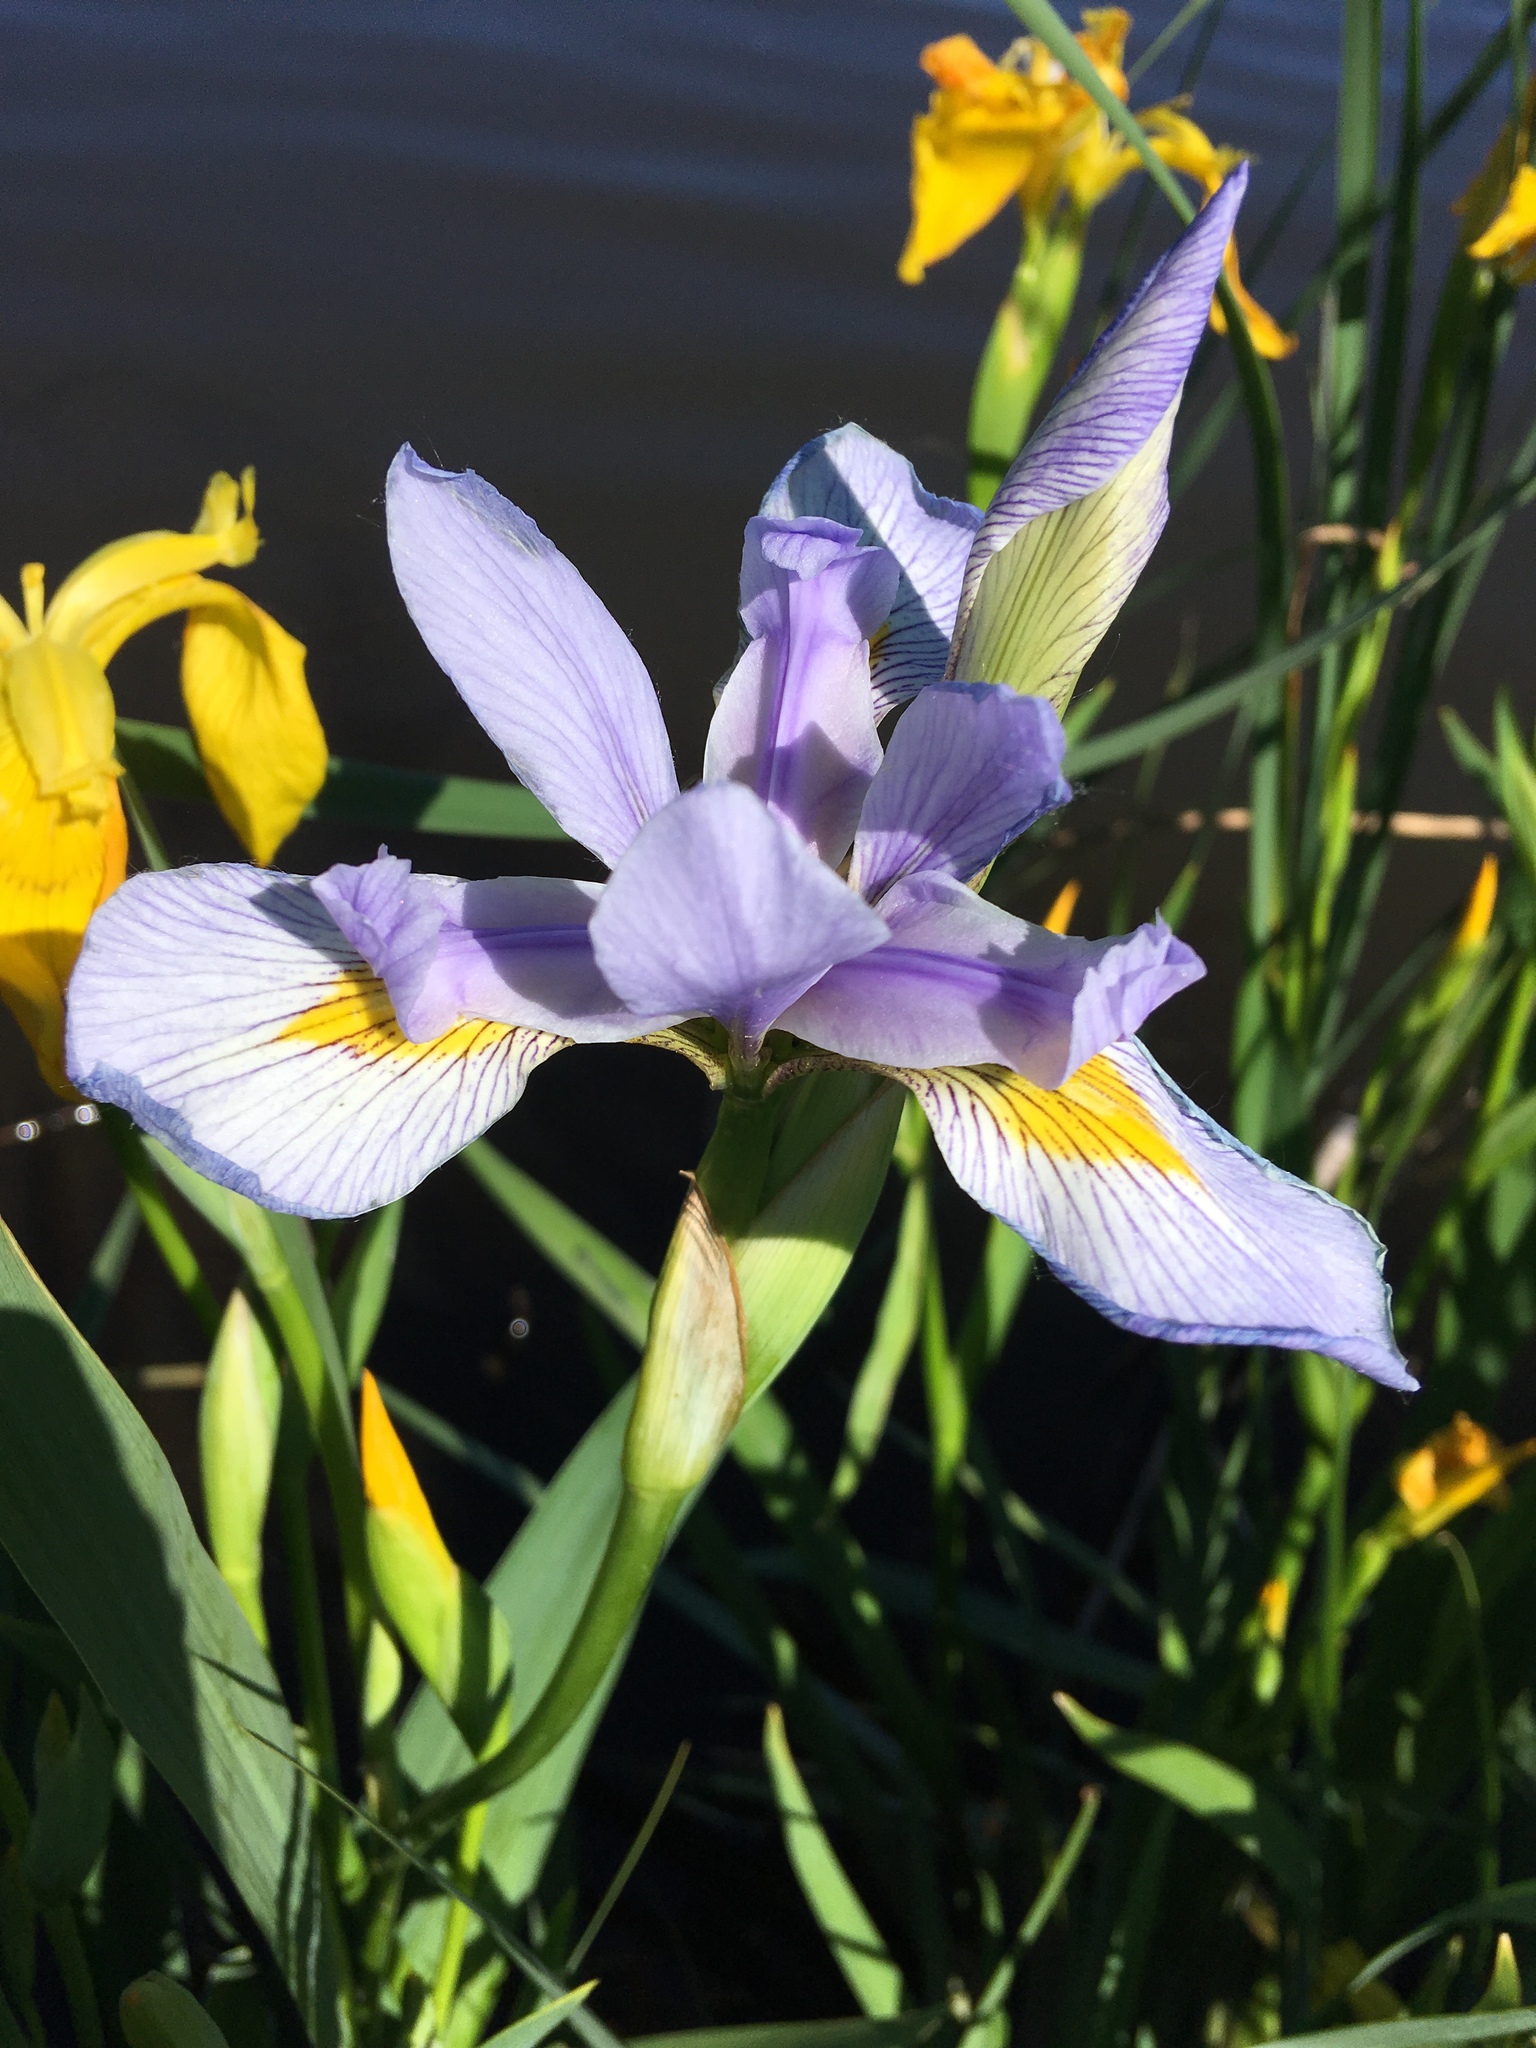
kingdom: Plantae
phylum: Tracheophyta
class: Liliopsida
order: Asparagales
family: Iridaceae
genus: Iris
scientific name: Iris virginica
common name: Southern blue flag
